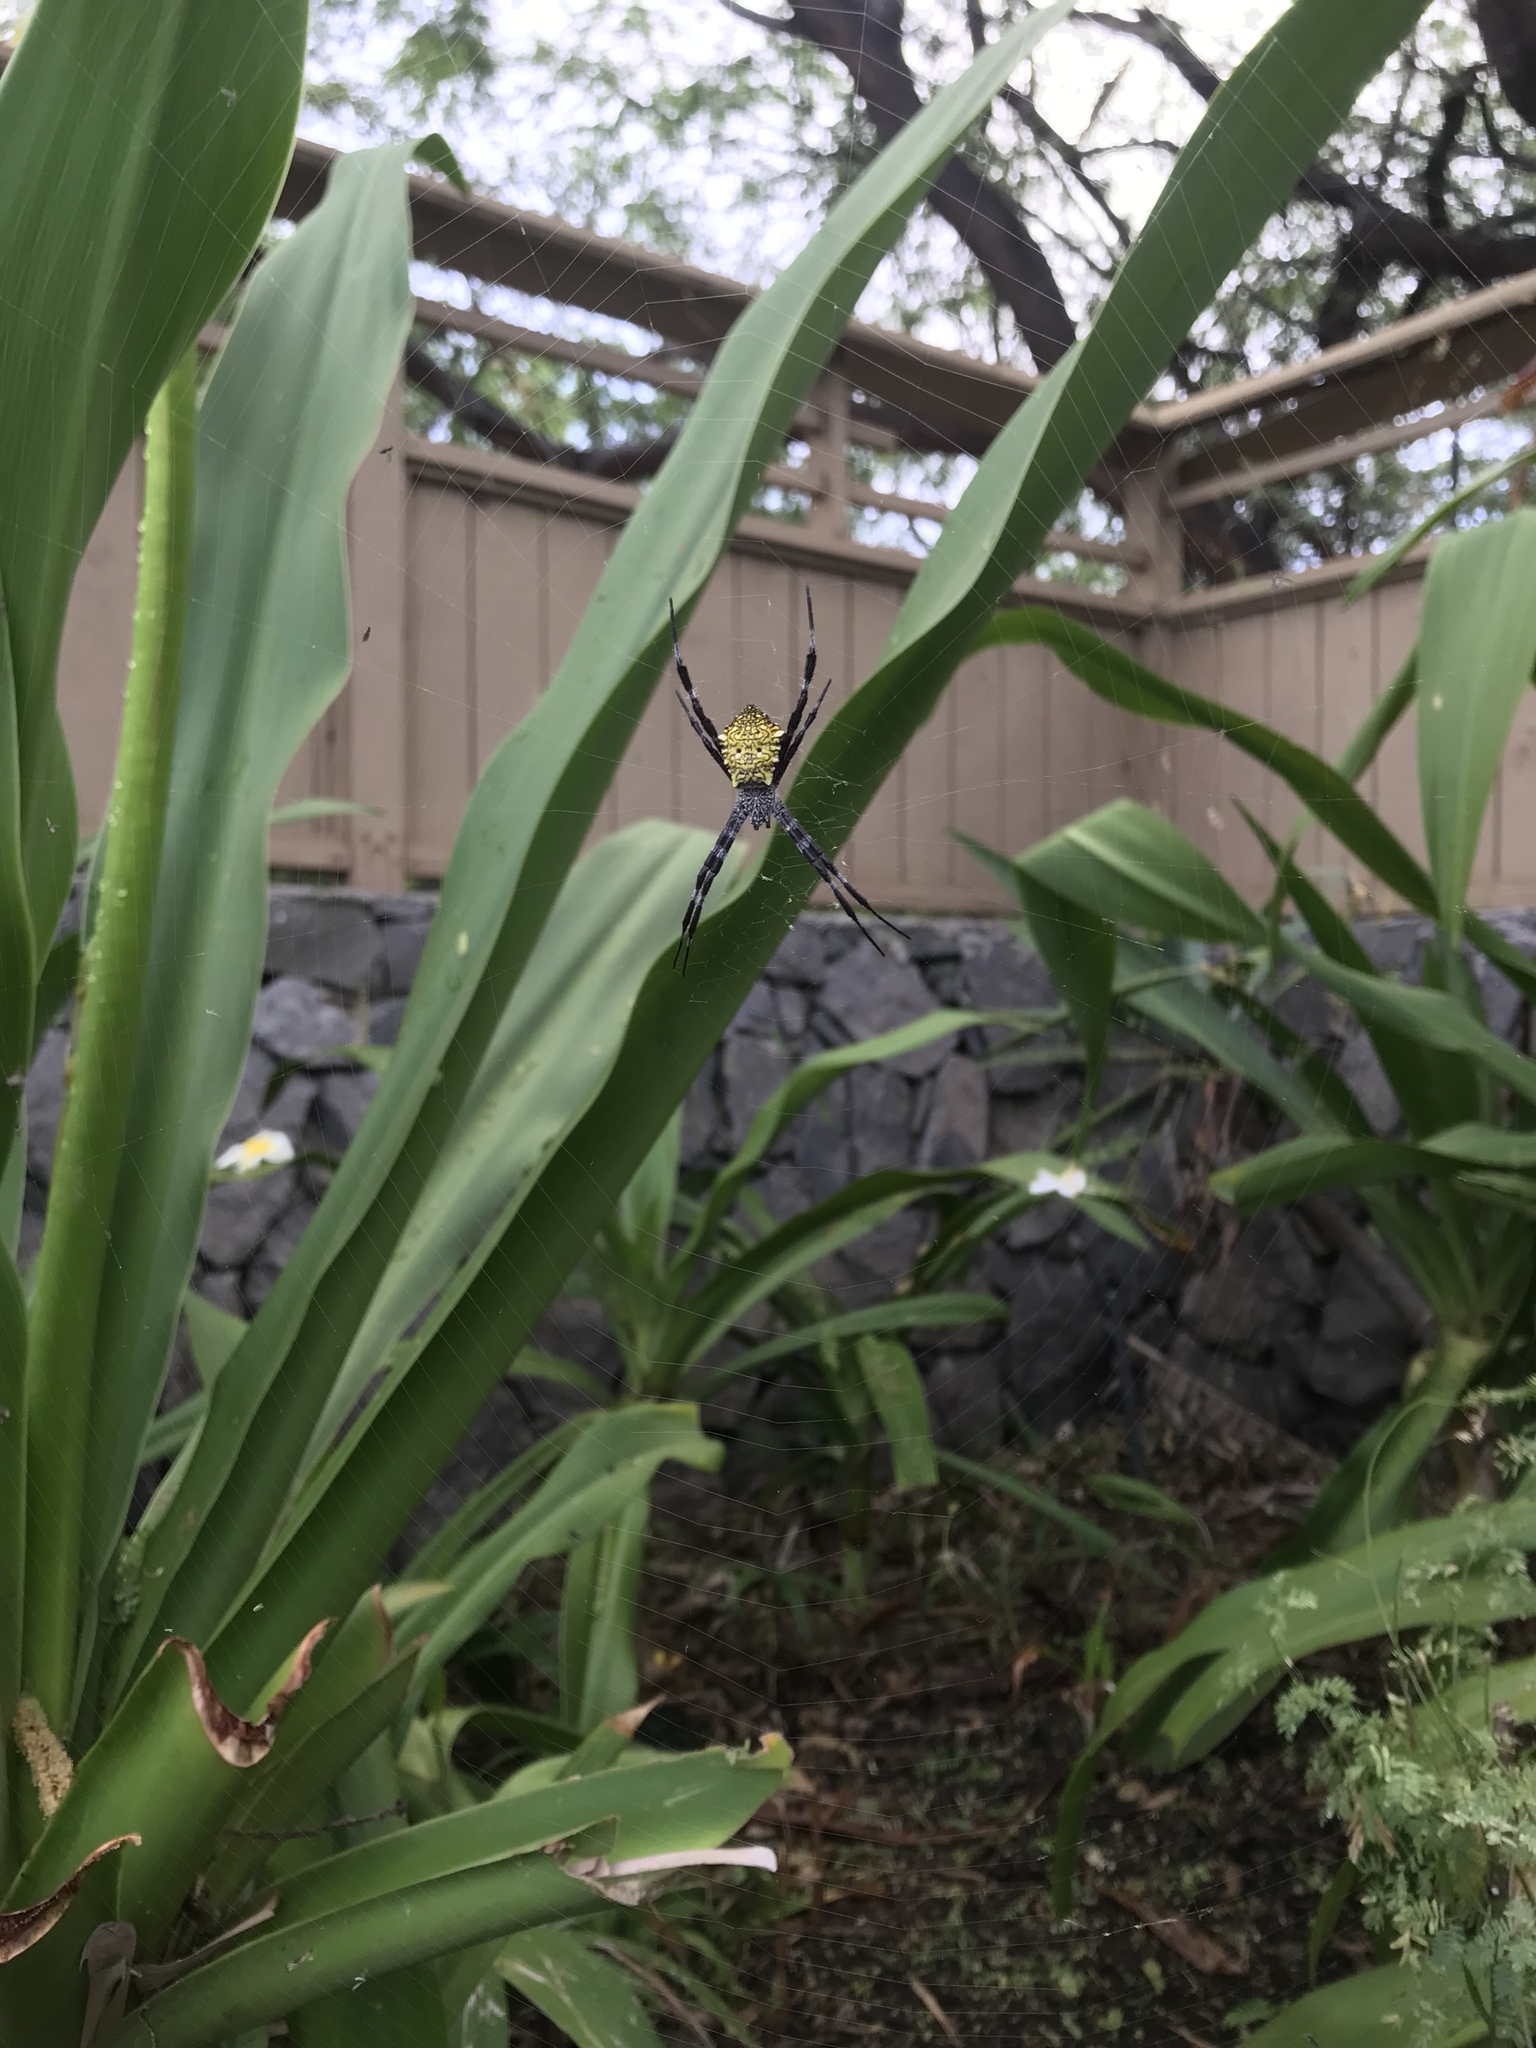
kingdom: Animalia
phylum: Arthropoda
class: Arachnida
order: Araneae
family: Araneidae
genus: Argiope
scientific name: Argiope appensa
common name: Garden spider
